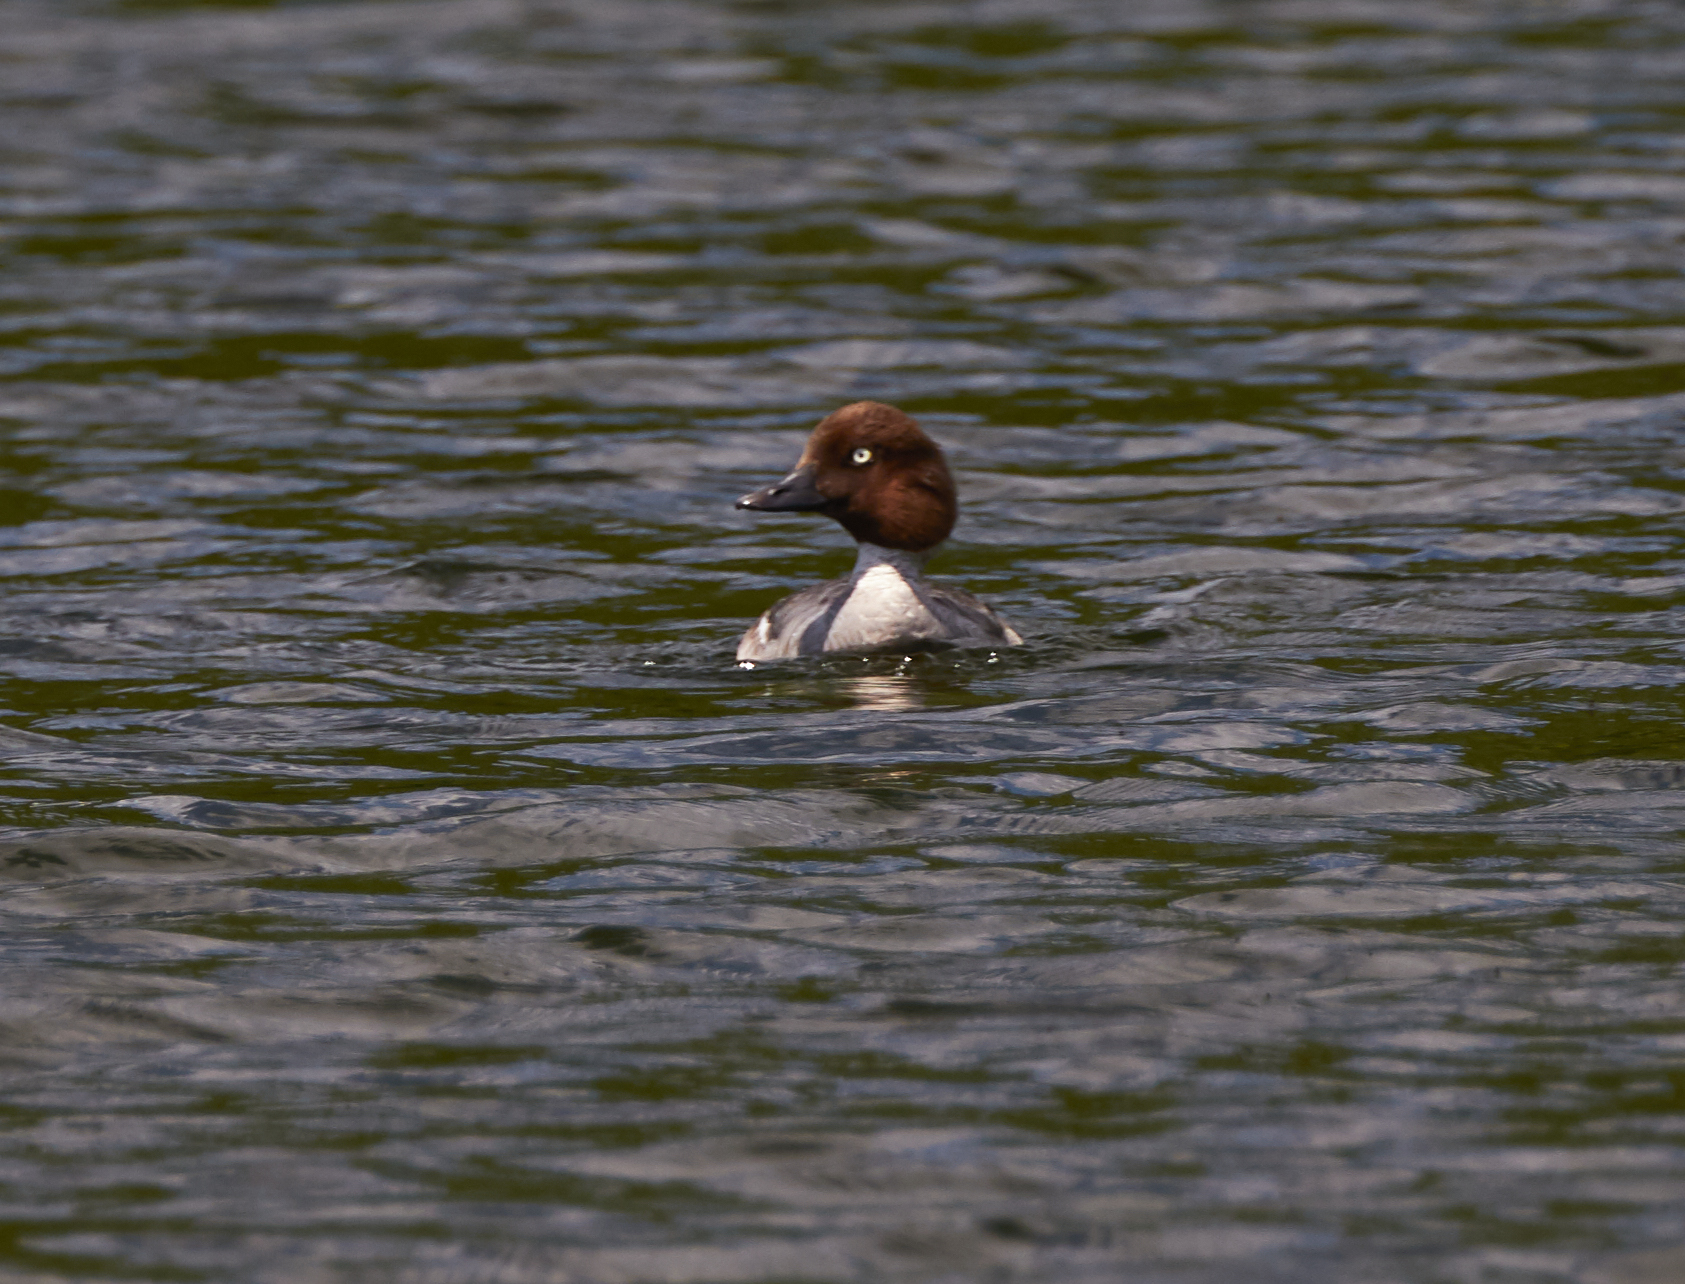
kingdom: Animalia
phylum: Chordata
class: Aves
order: Anseriformes
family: Anatidae
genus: Bucephala
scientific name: Bucephala clangula
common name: Common goldeneye
